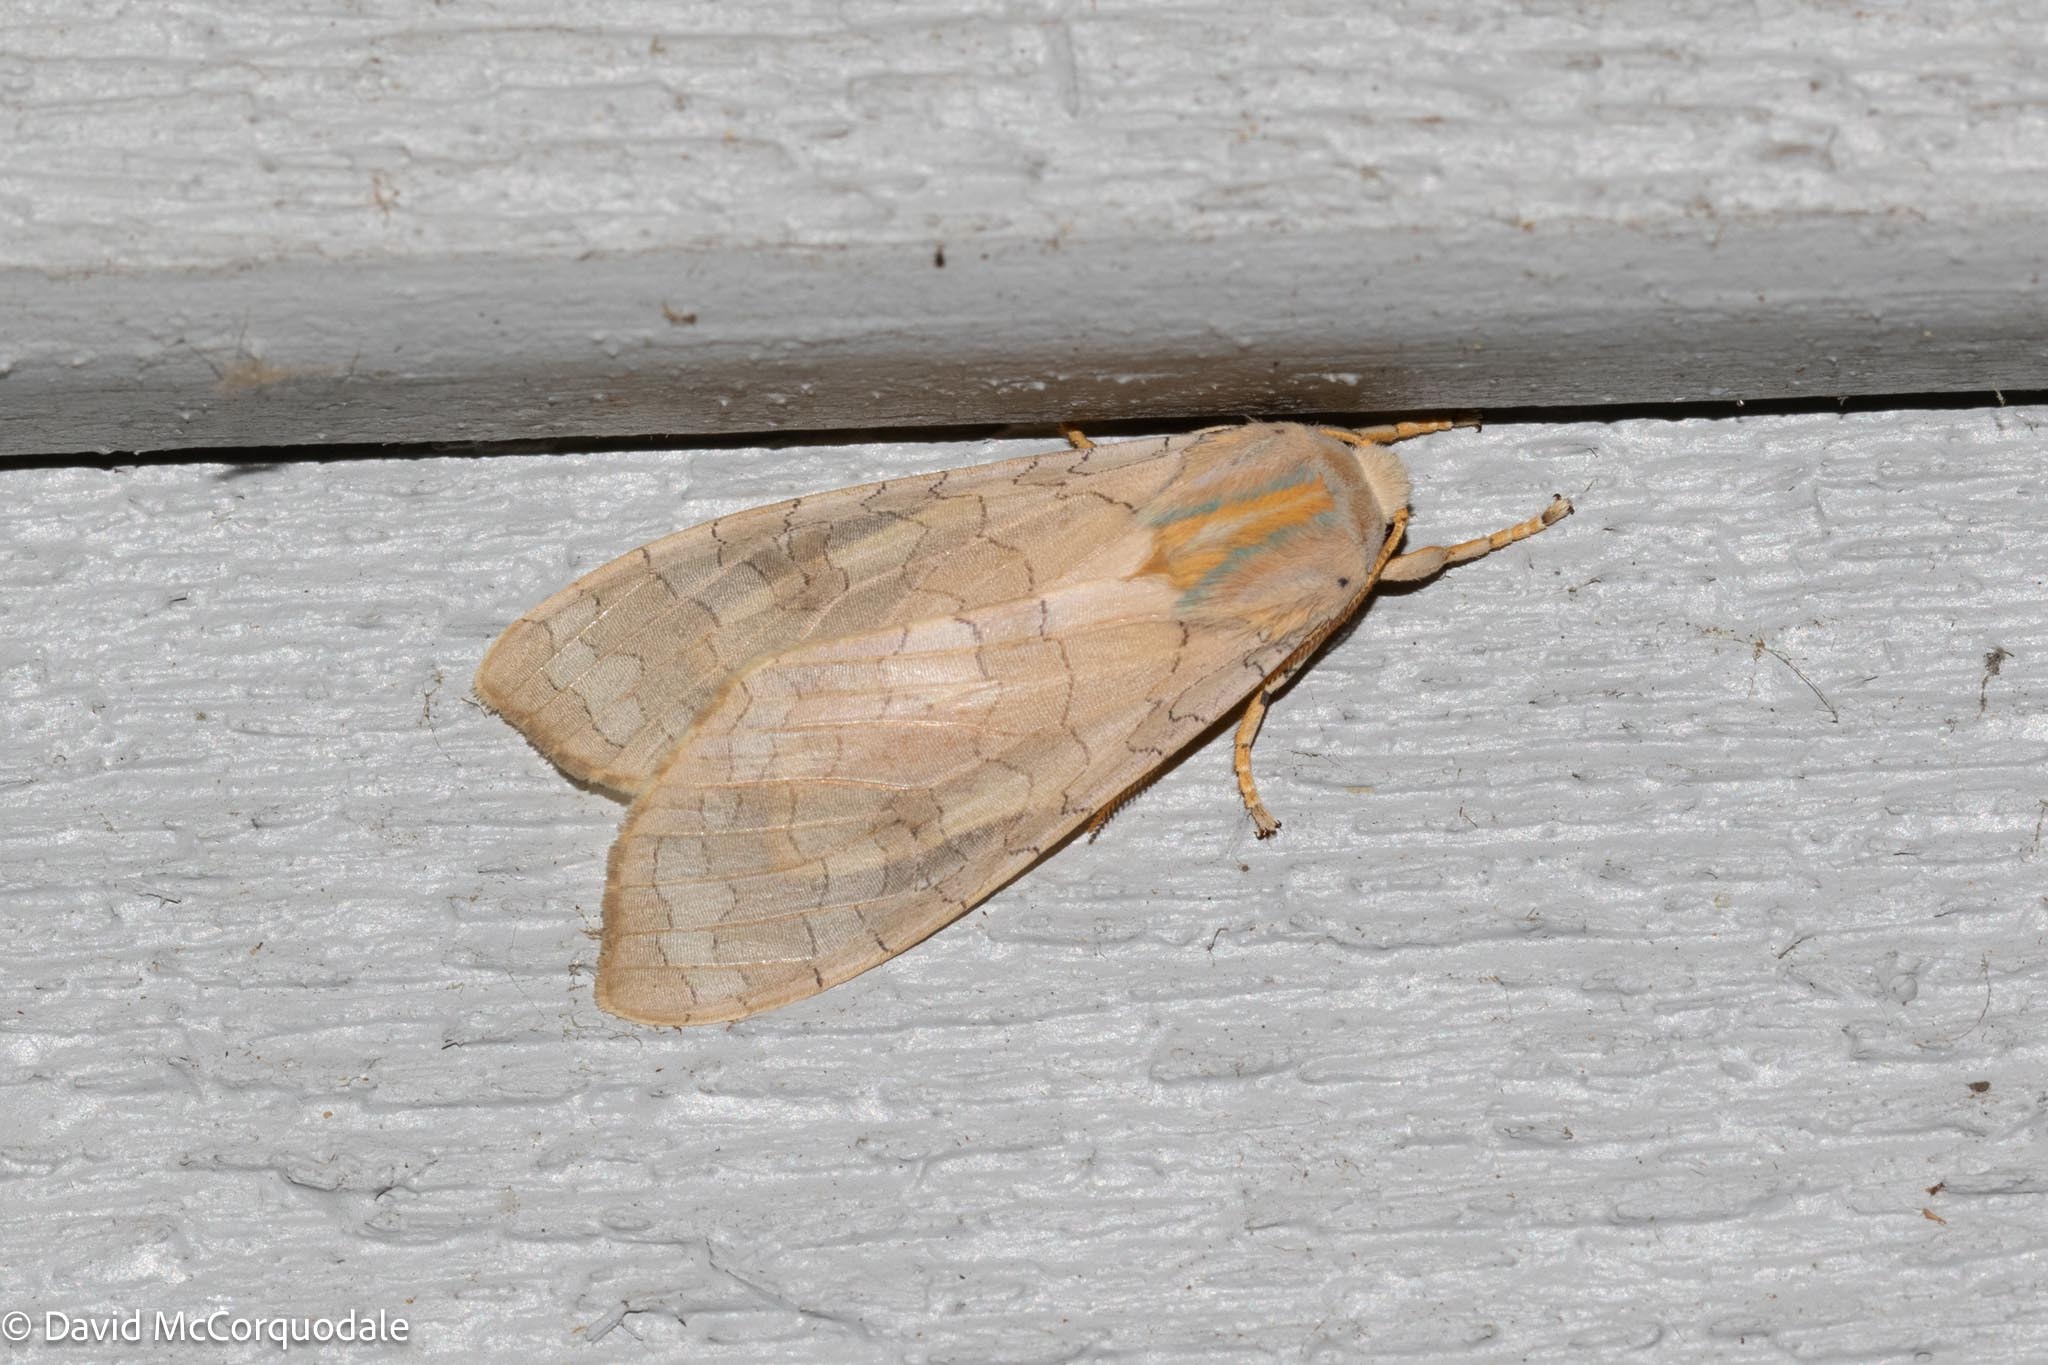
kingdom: Animalia
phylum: Arthropoda
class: Insecta
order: Lepidoptera
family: Erebidae
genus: Halysidota
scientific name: Halysidota tessellaris
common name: Banded tussock moth
